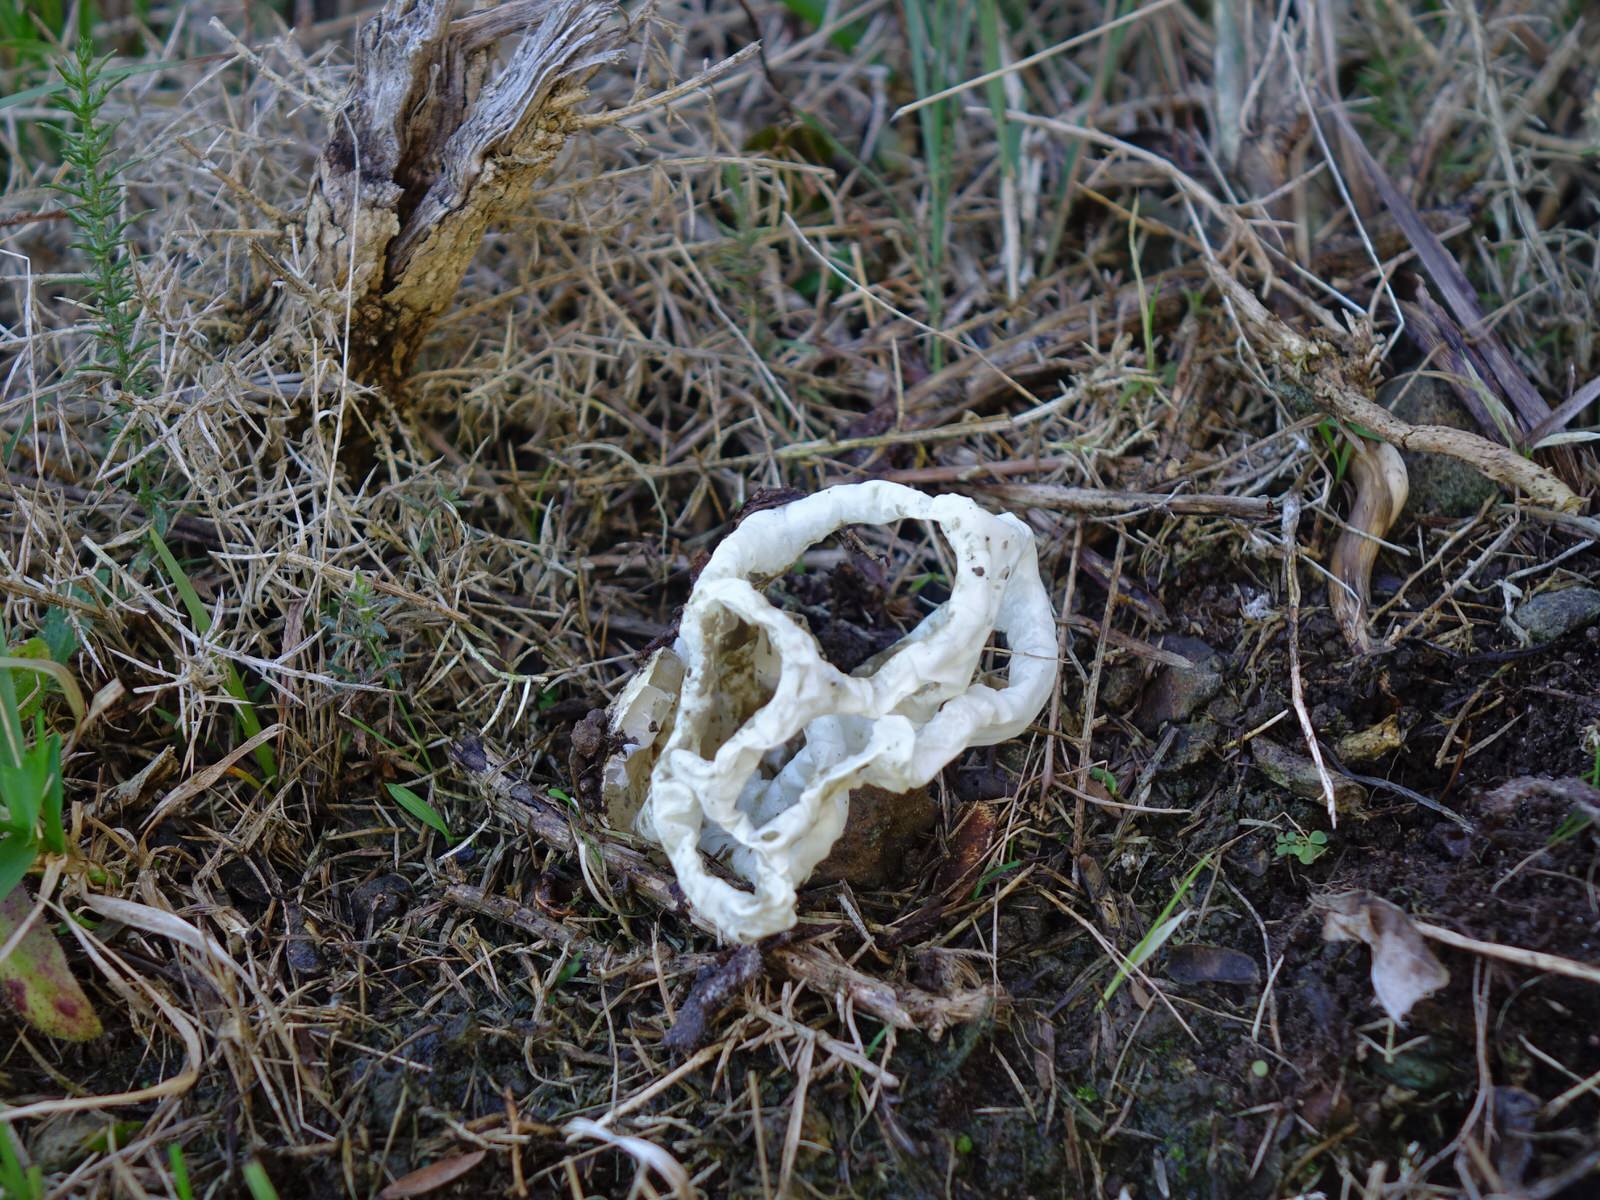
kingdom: Fungi
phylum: Basidiomycota
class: Agaricomycetes
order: Phallales
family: Phallaceae
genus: Ileodictyon
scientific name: Ileodictyon cibarium
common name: Basket fungus
